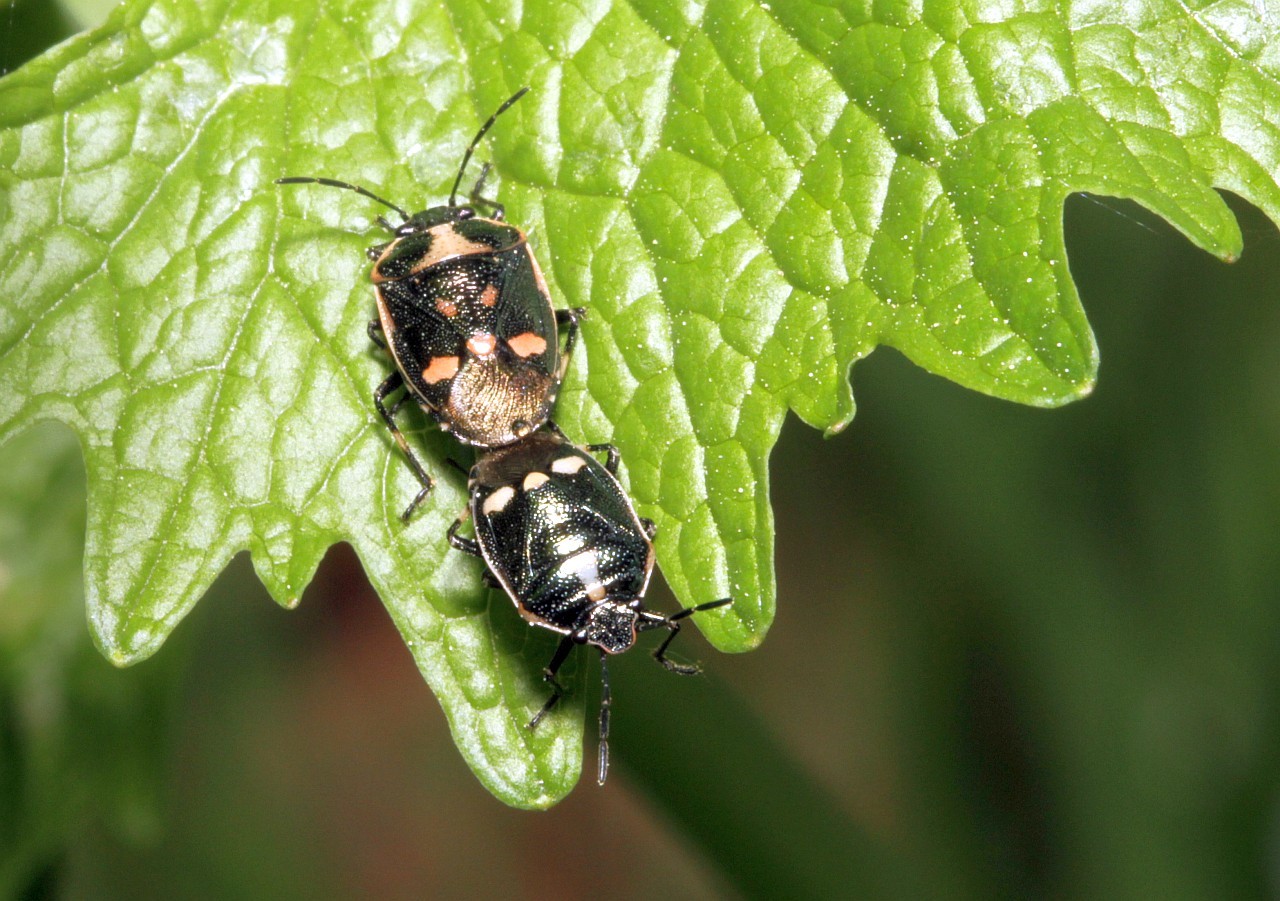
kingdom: Animalia
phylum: Arthropoda
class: Insecta
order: Hemiptera
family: Pentatomidae
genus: Eurydema
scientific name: Eurydema oleracea
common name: Cabbage bug
